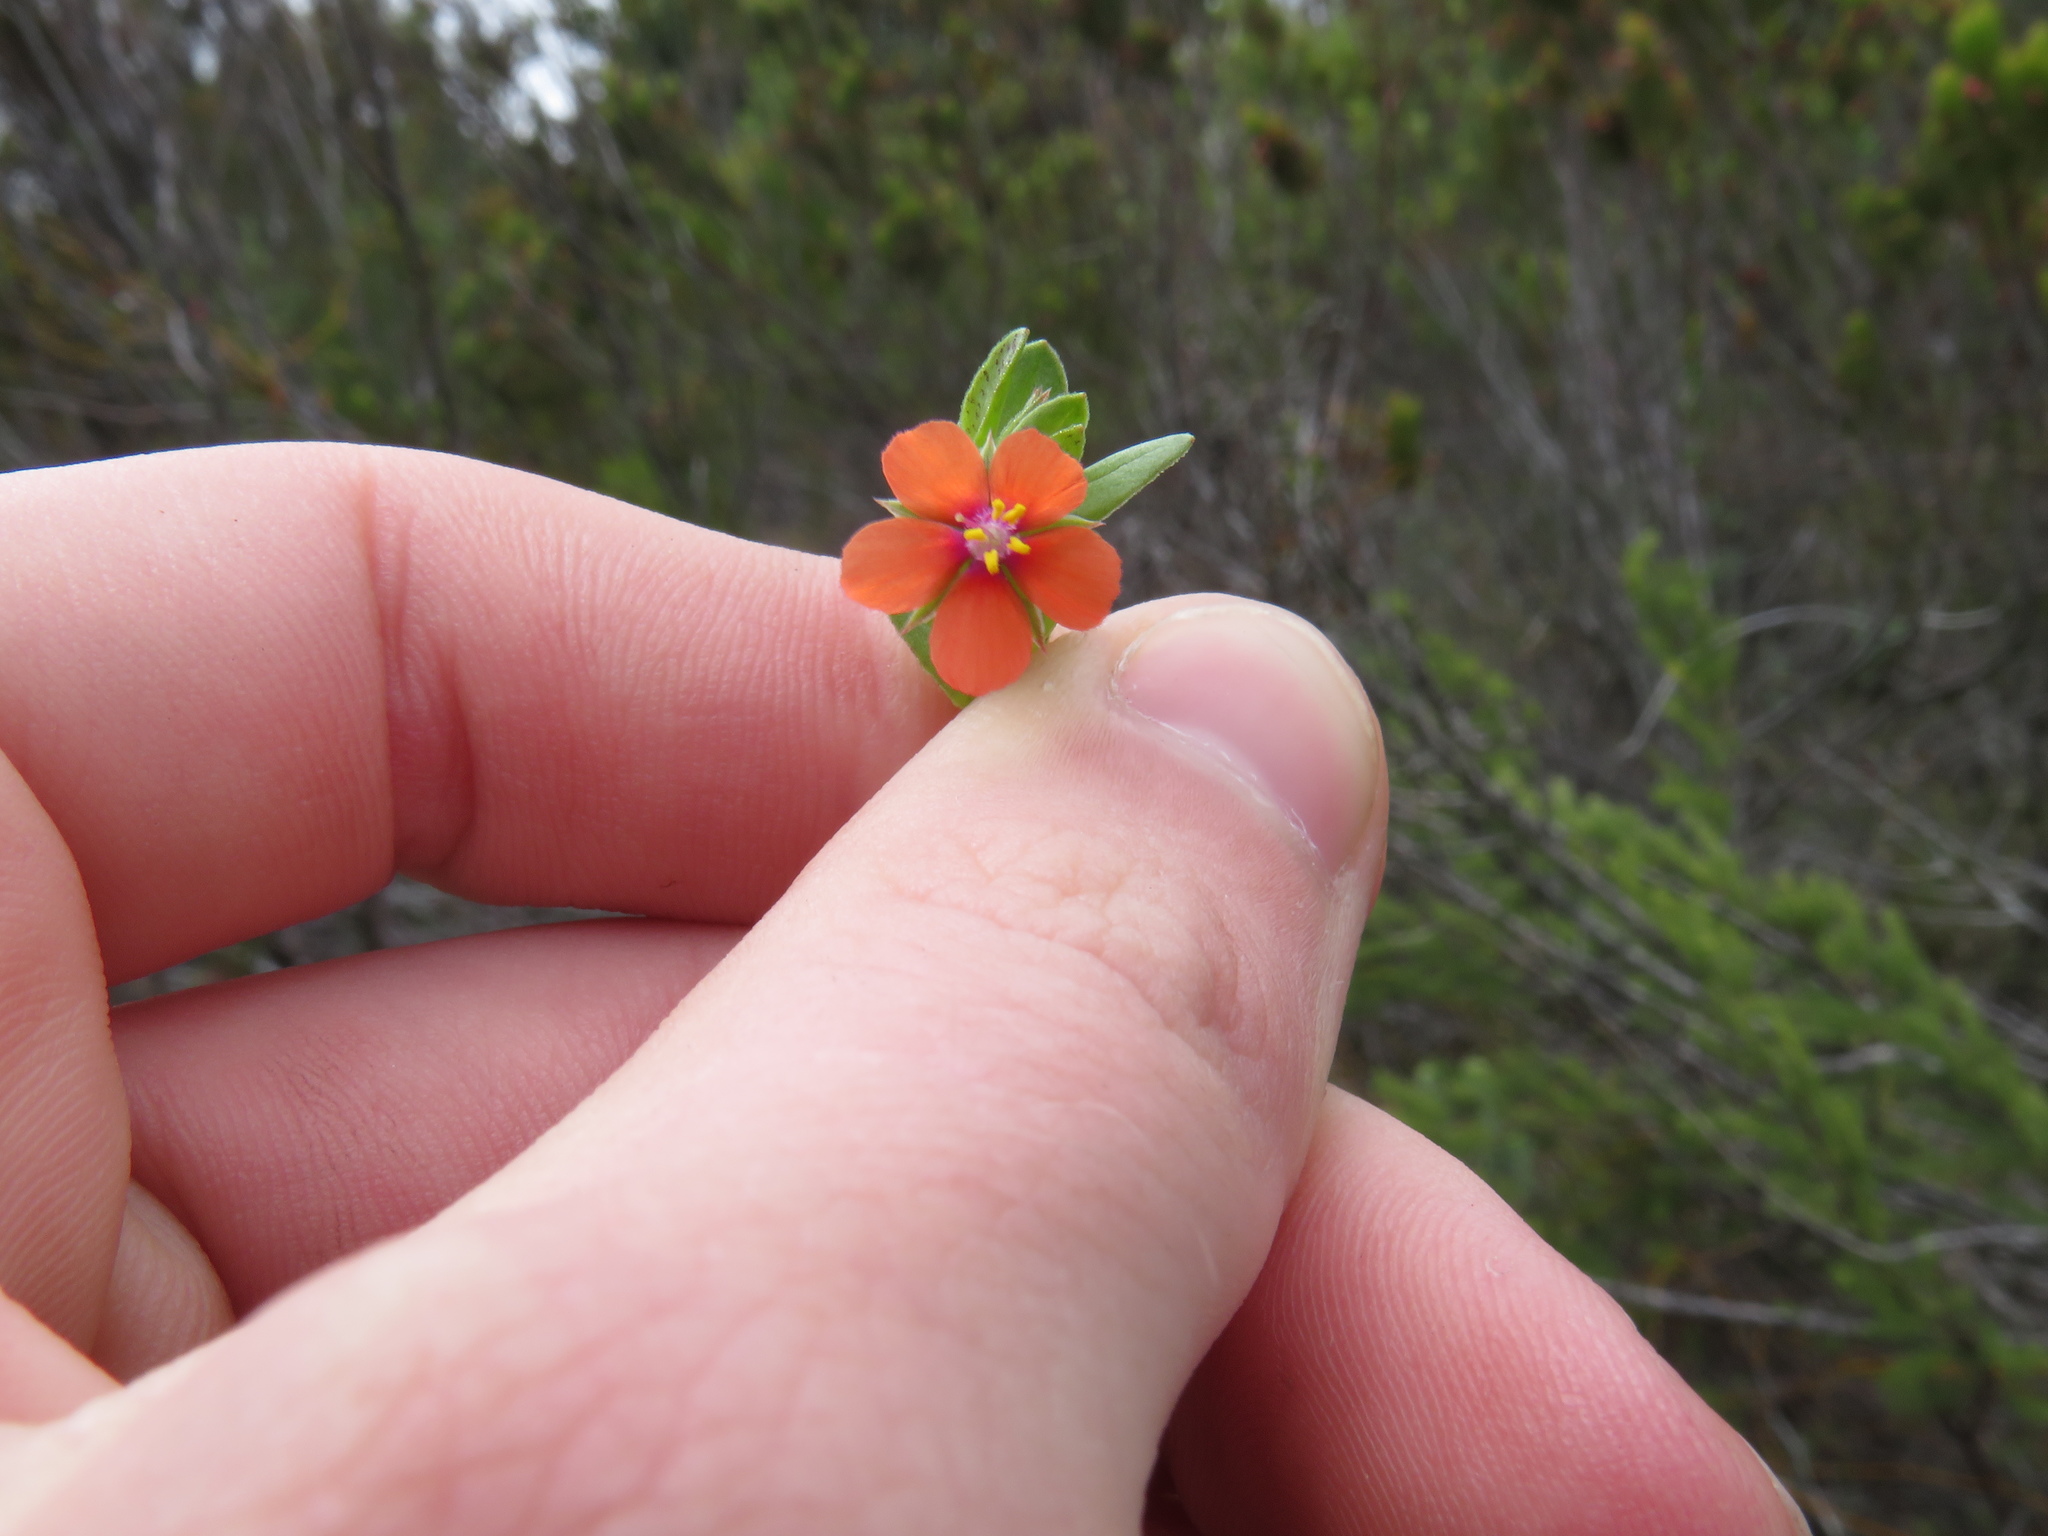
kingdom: Plantae
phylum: Tracheophyta
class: Magnoliopsida
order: Ericales
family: Primulaceae
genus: Lysimachia
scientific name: Lysimachia arvensis
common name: Scarlet pimpernel
